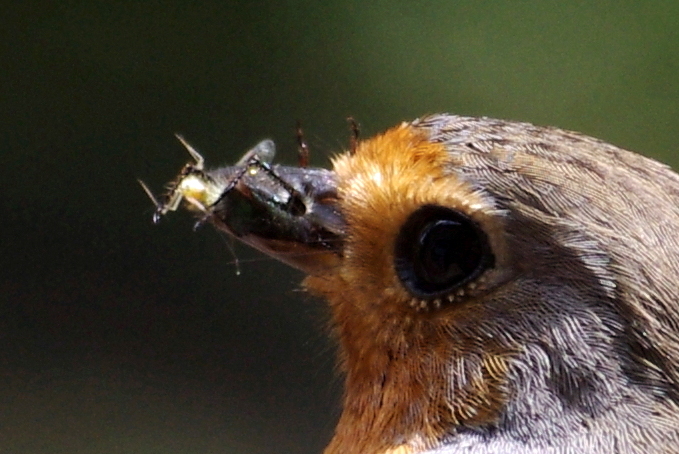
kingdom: Animalia
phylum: Chordata
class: Aves
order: Passeriformes
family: Muscicapidae
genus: Erithacus
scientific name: Erithacus rubecula
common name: European robin
